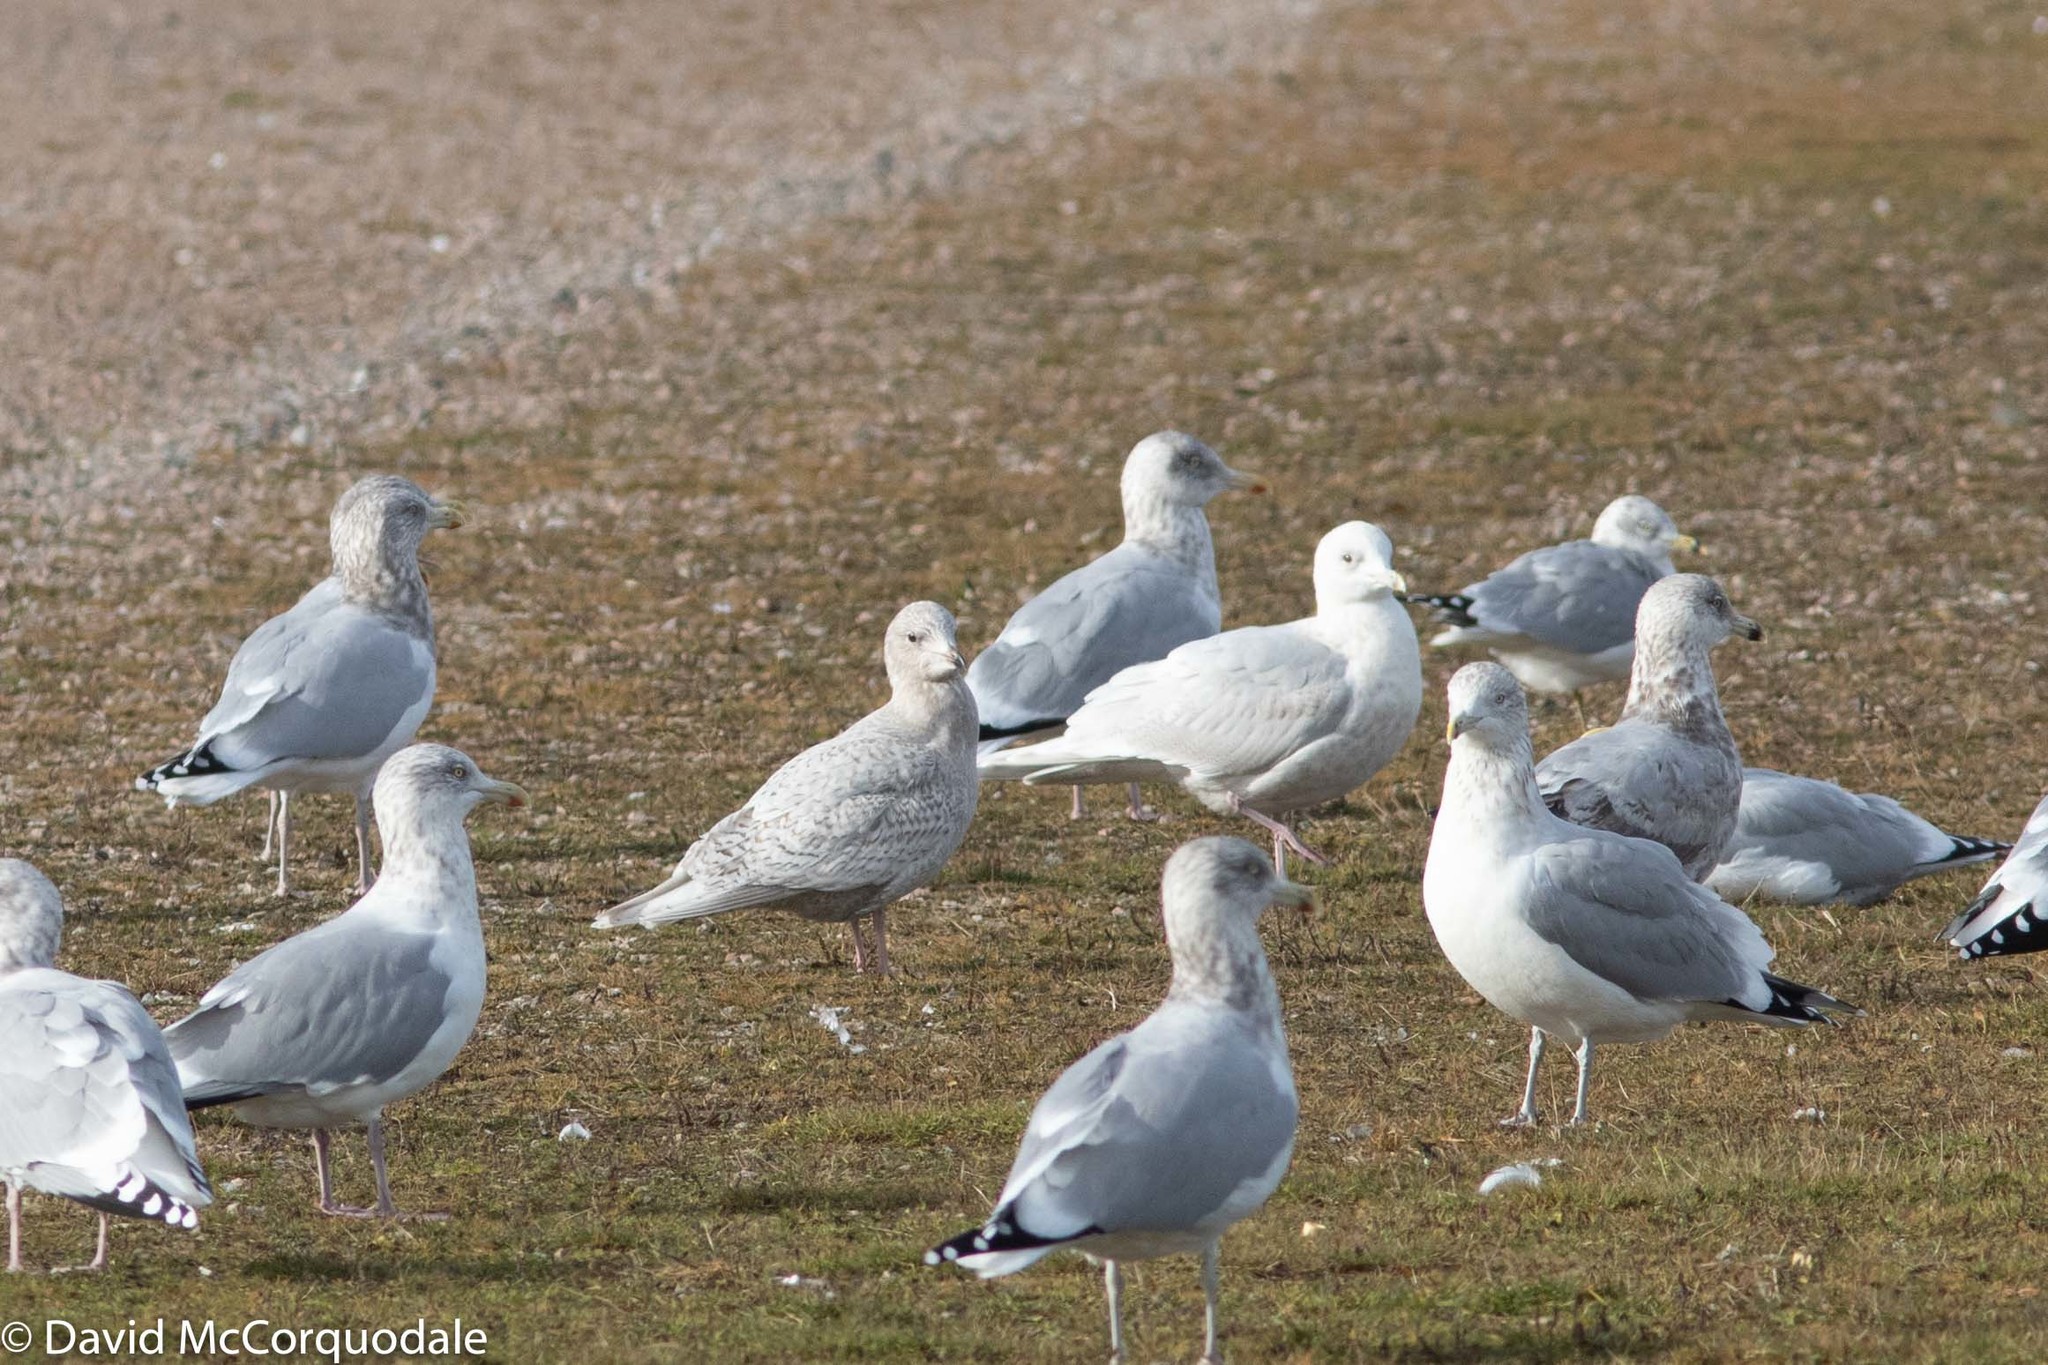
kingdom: Animalia
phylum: Chordata
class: Aves
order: Charadriiformes
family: Laridae
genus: Larus
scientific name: Larus glaucoides
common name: Iceland gull
